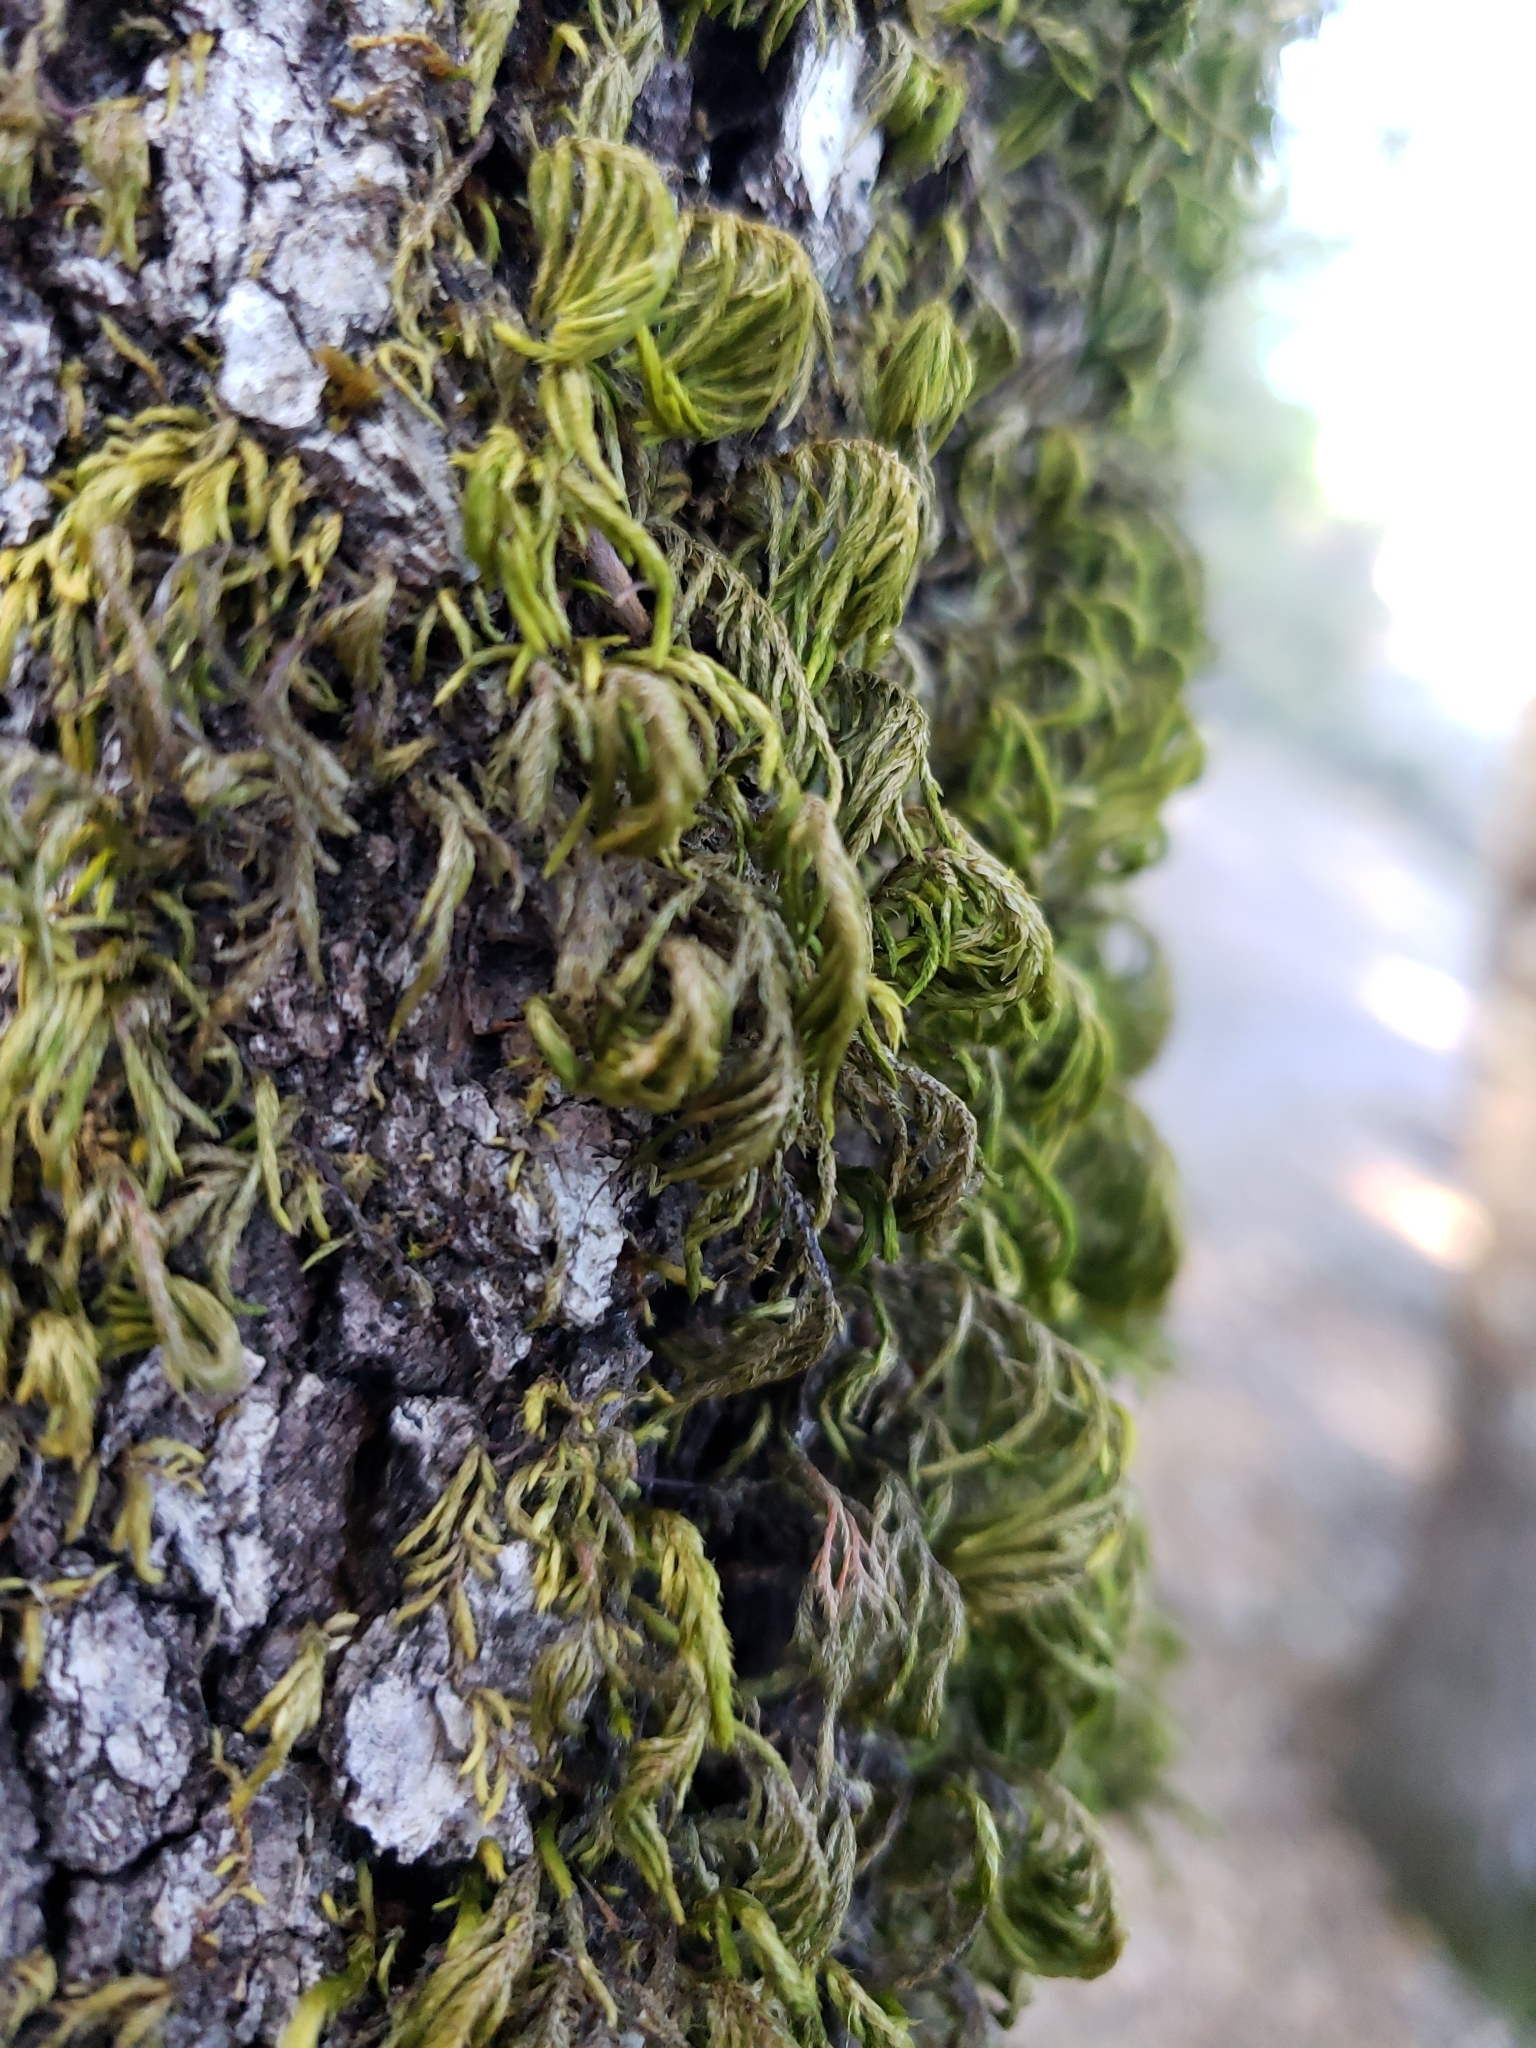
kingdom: Plantae
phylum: Bryophyta
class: Bryopsida
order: Hypnales
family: Cryphaeaceae
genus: Dendroalsia
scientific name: Dendroalsia abietina
